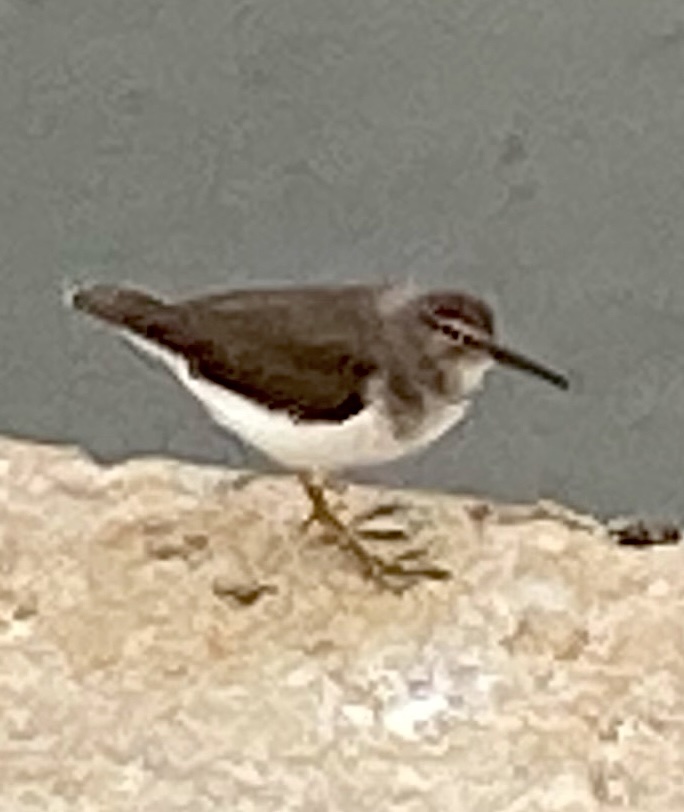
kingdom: Animalia
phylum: Chordata
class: Aves
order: Charadriiformes
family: Scolopacidae
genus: Actitis
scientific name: Actitis macularius
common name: Spotted sandpiper
